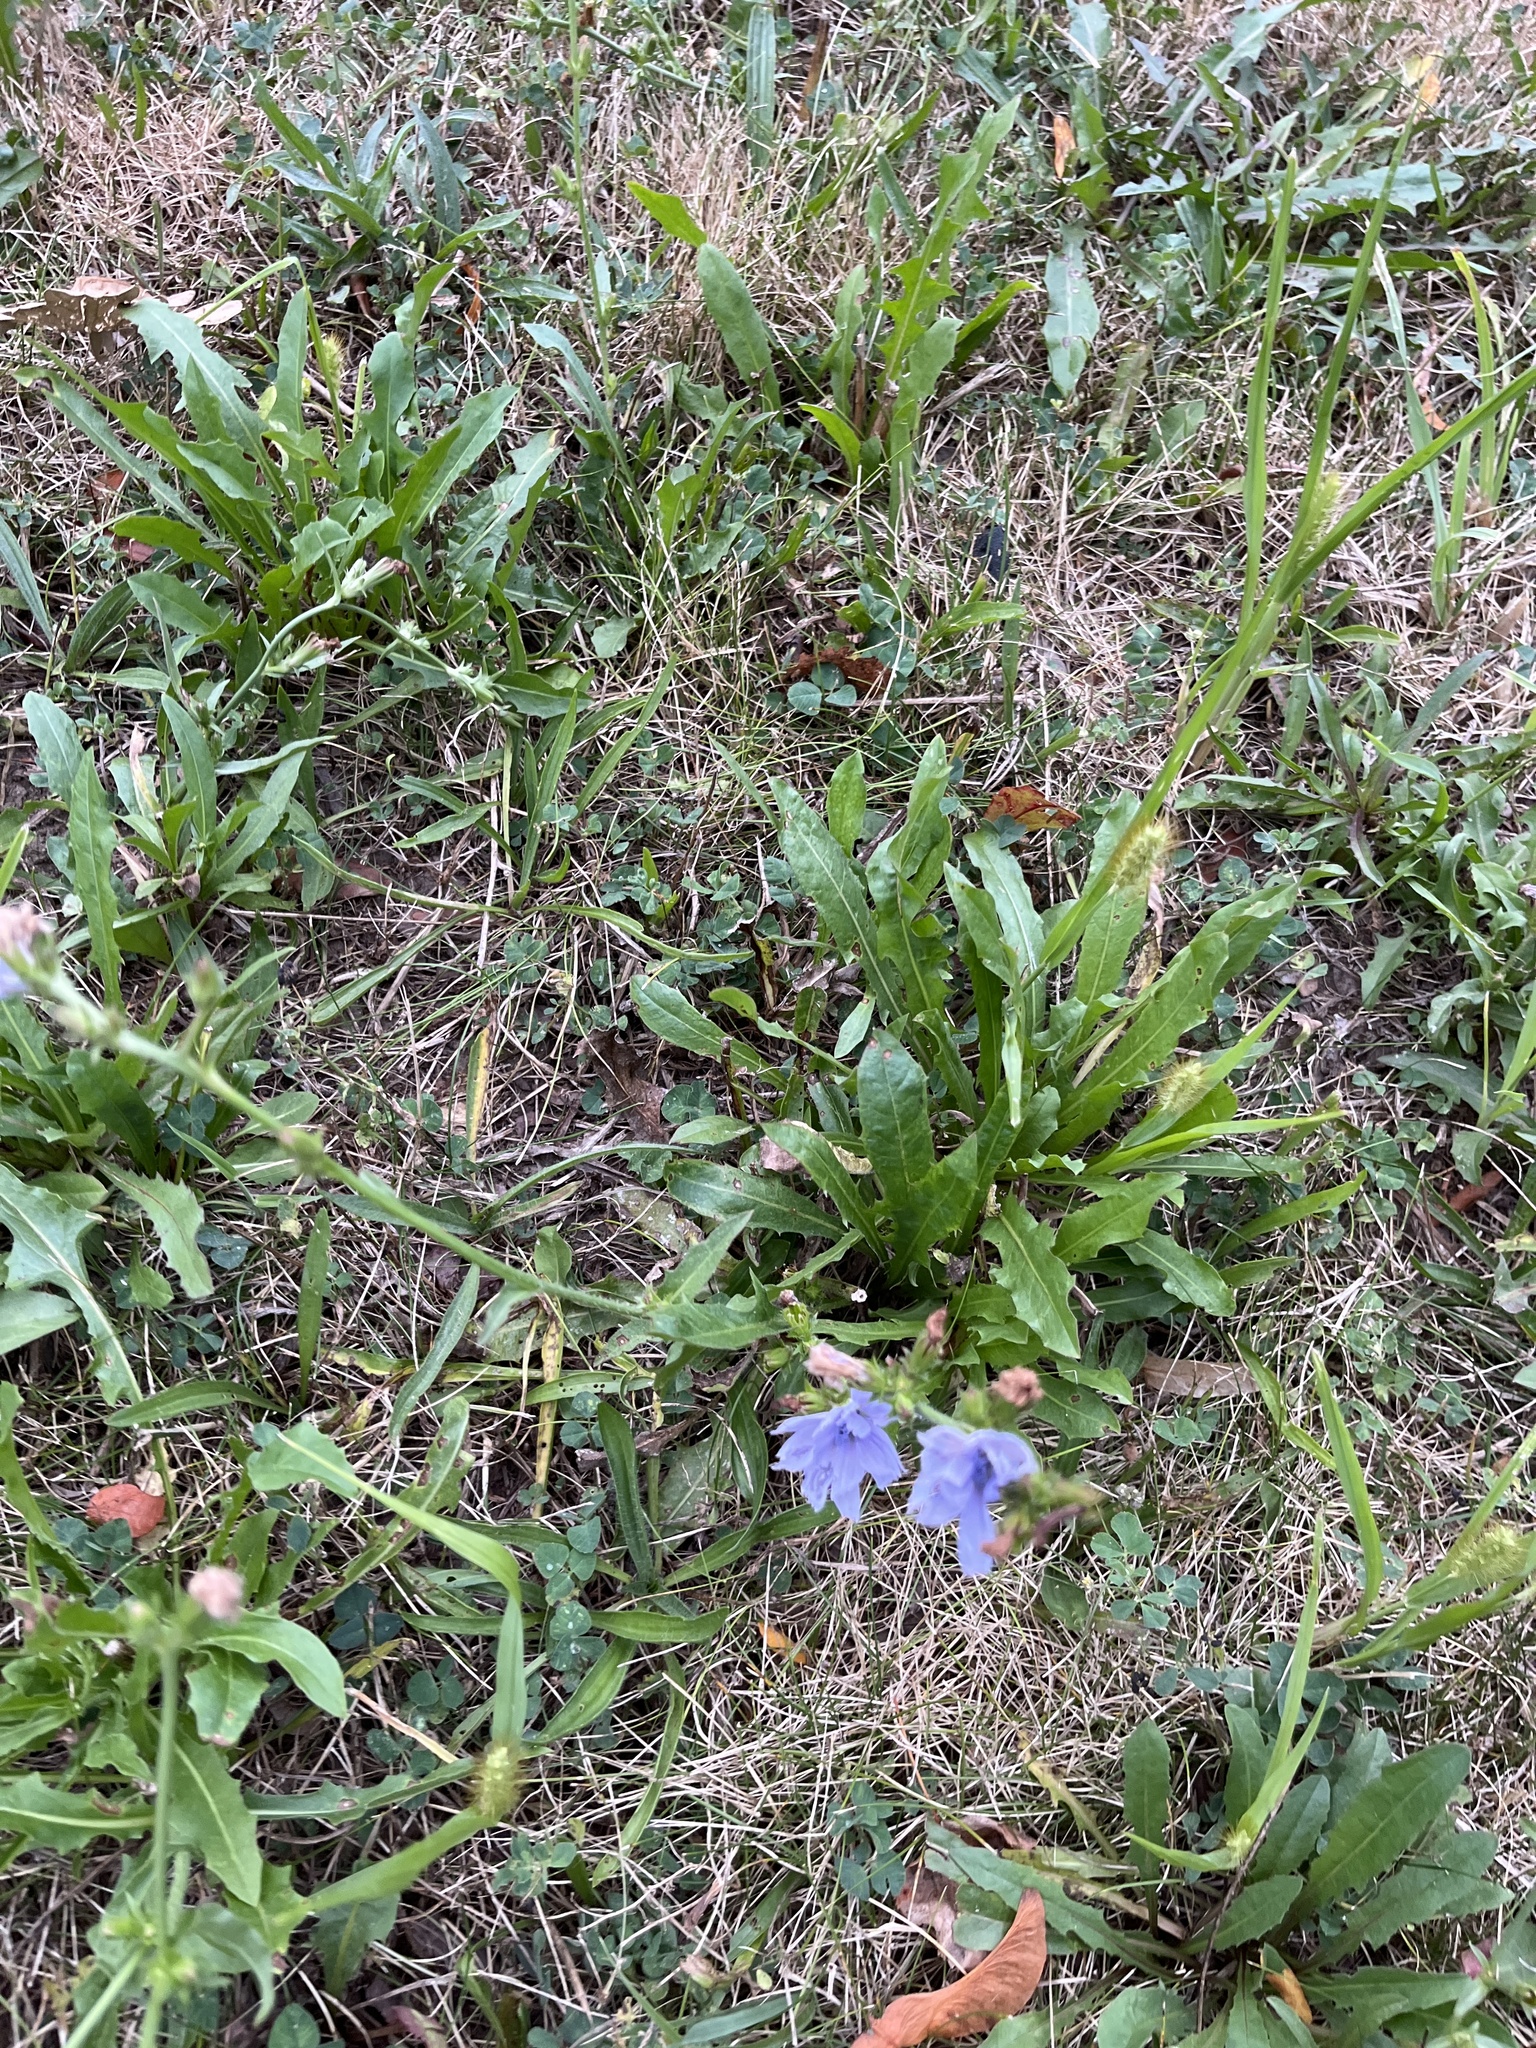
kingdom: Plantae
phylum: Tracheophyta
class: Magnoliopsida
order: Asterales
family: Asteraceae
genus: Cichorium
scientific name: Cichorium intybus
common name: Chicory
